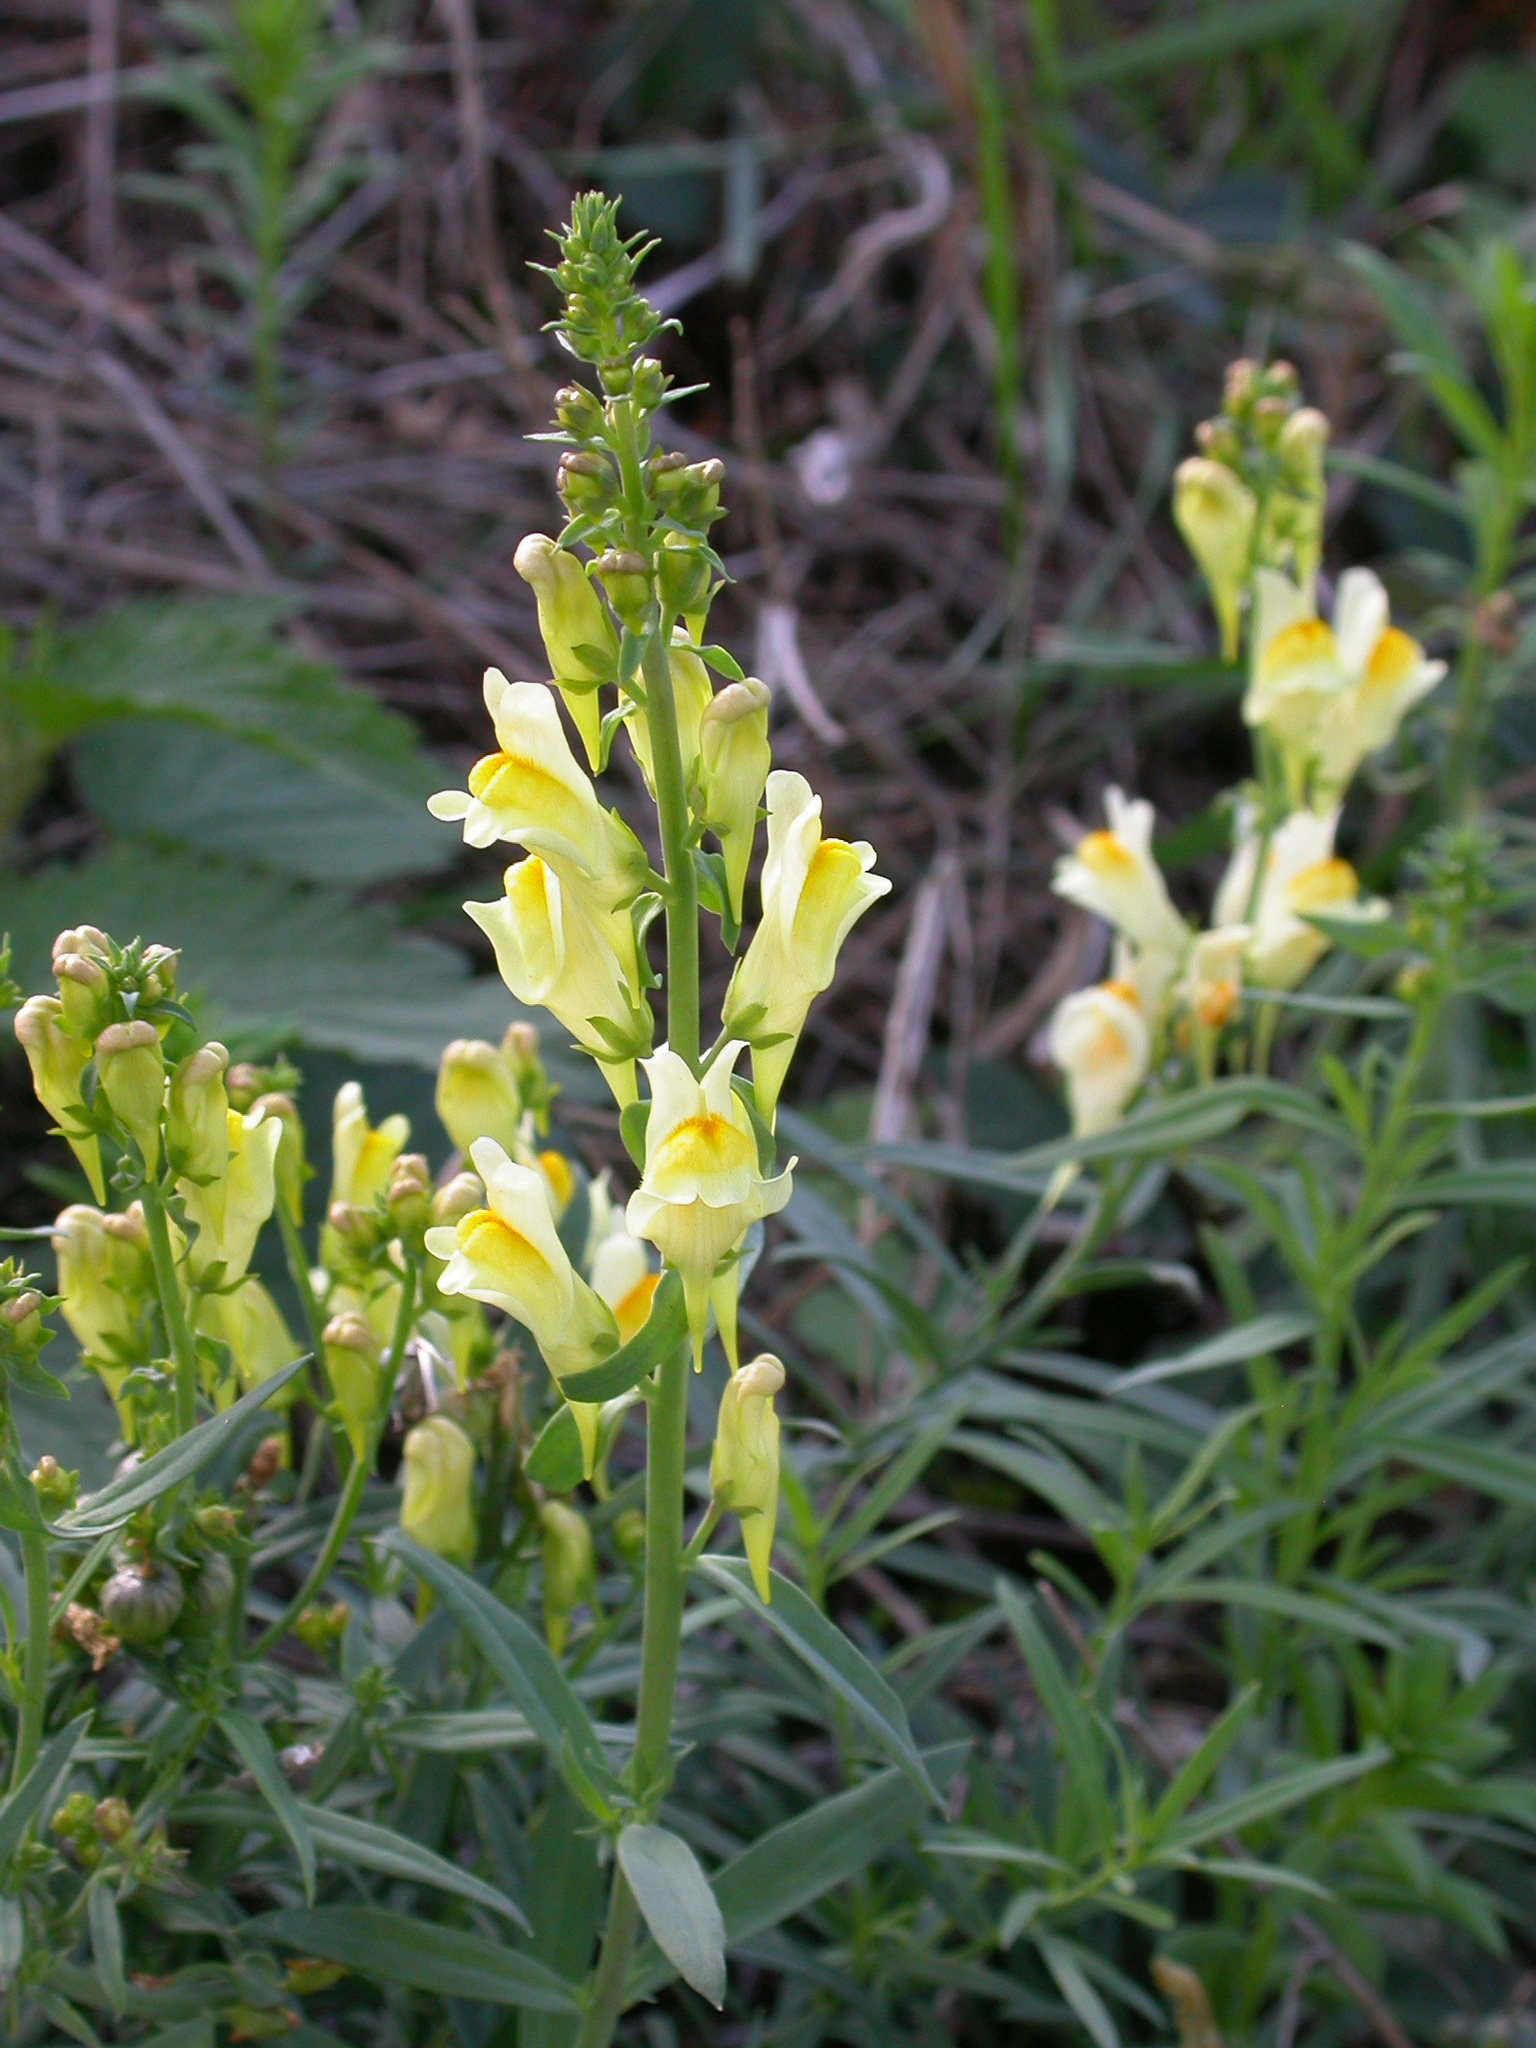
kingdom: Plantae
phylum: Tracheophyta
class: Magnoliopsida
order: Lamiales
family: Plantaginaceae
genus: Linaria
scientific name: Linaria vulgaris
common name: Butter and eggs
